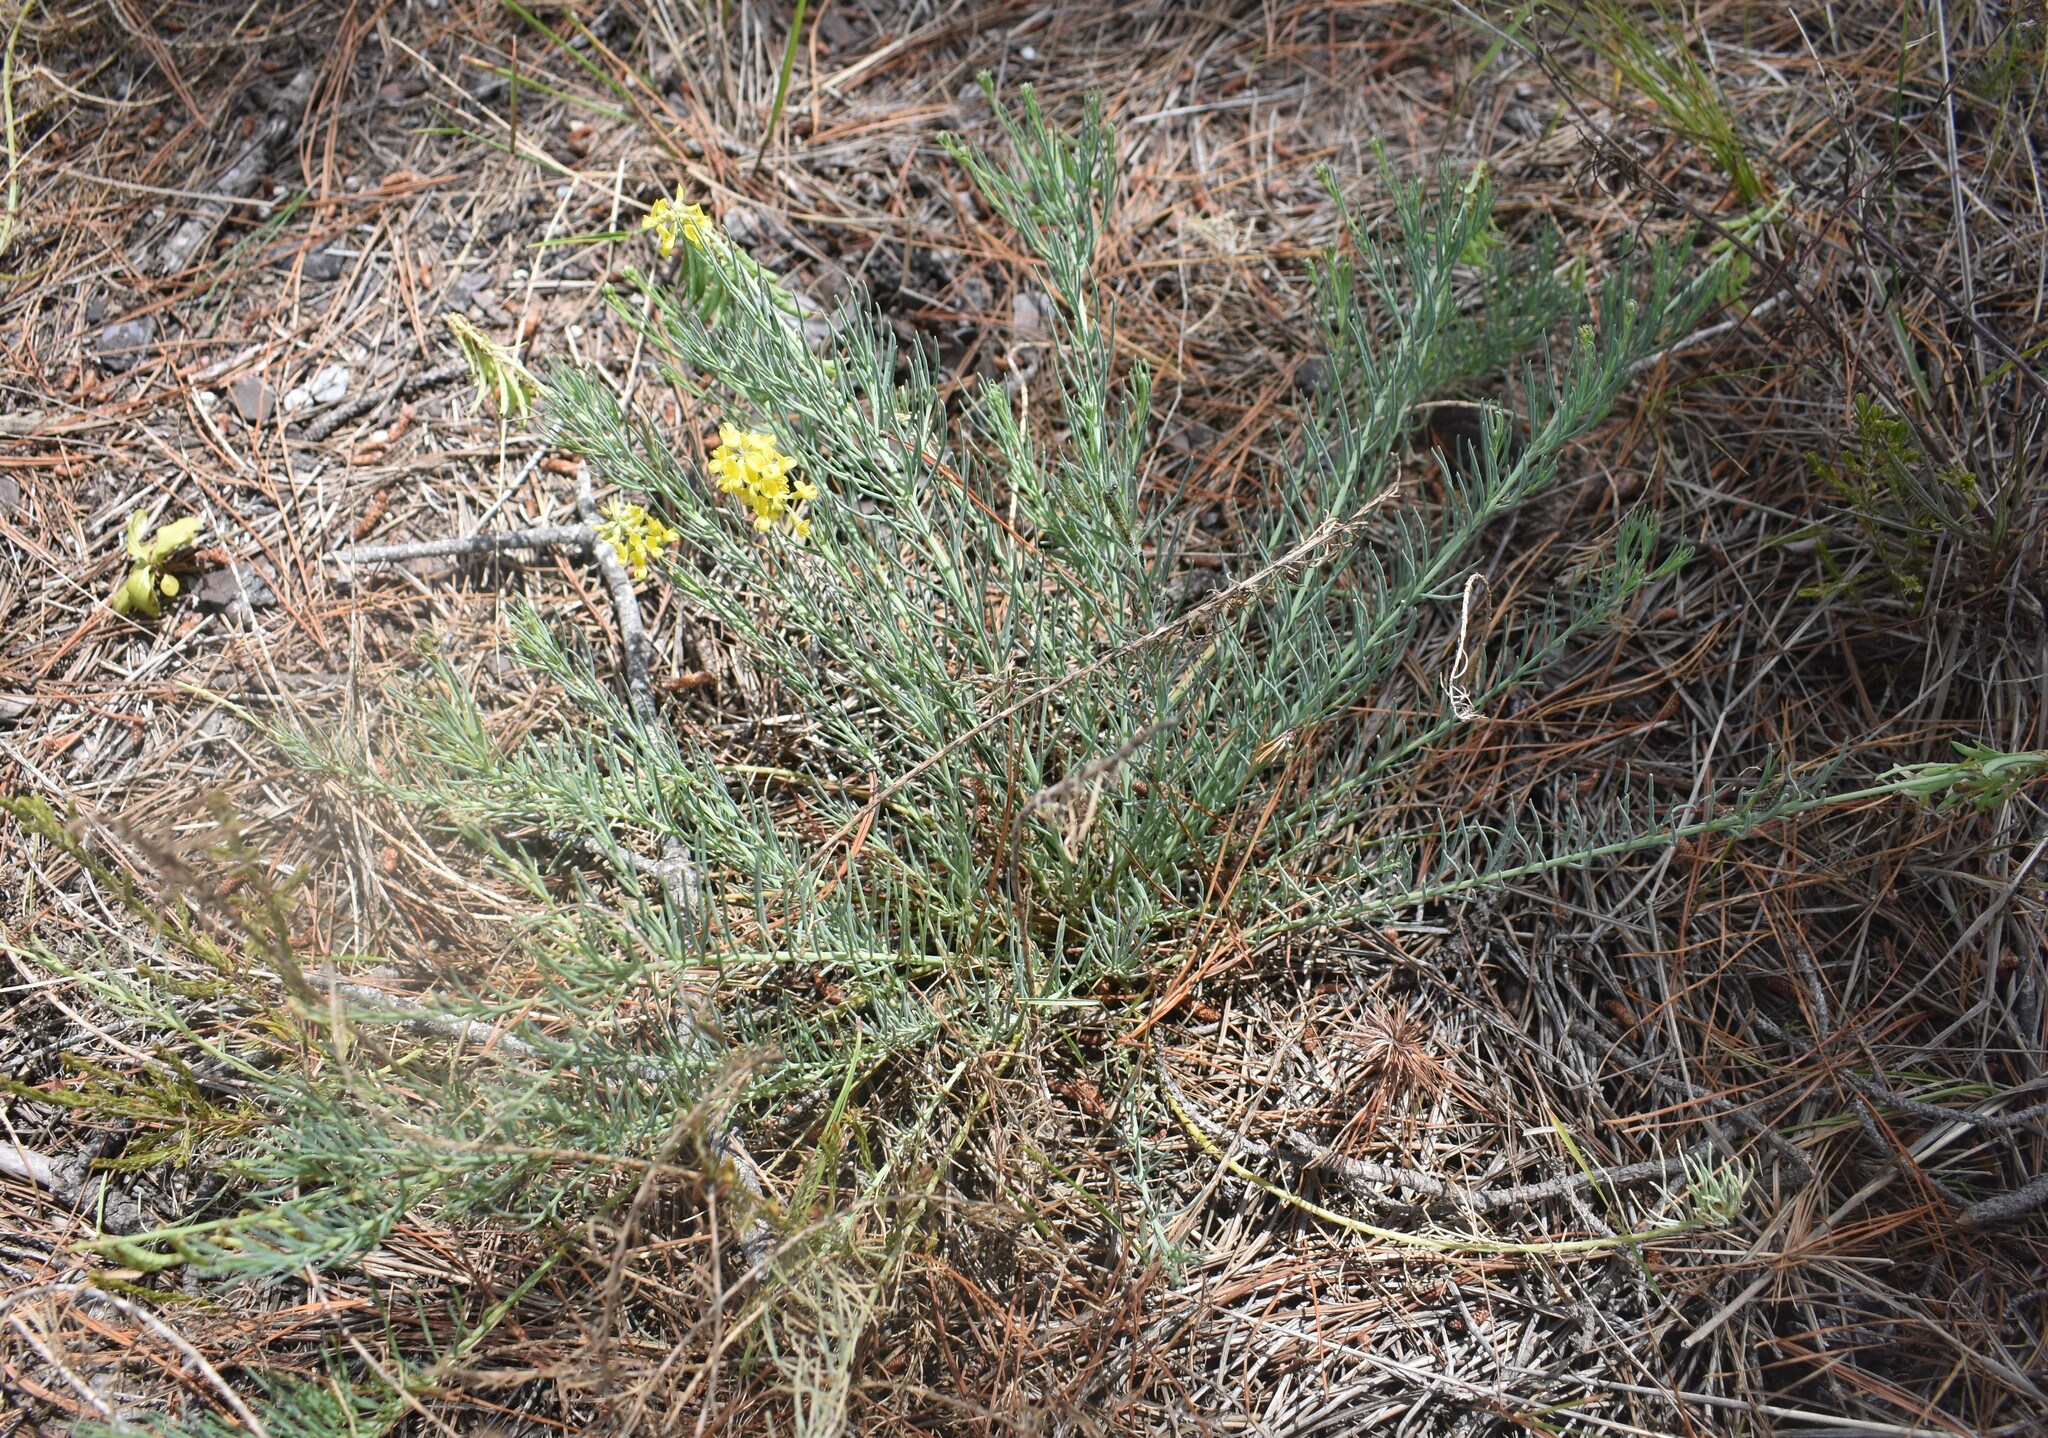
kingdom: Plantae
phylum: Tracheophyta
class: Magnoliopsida
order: Fabales
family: Fabaceae
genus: Lebeckia
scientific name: Lebeckia gracilis
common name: Slender ganna
